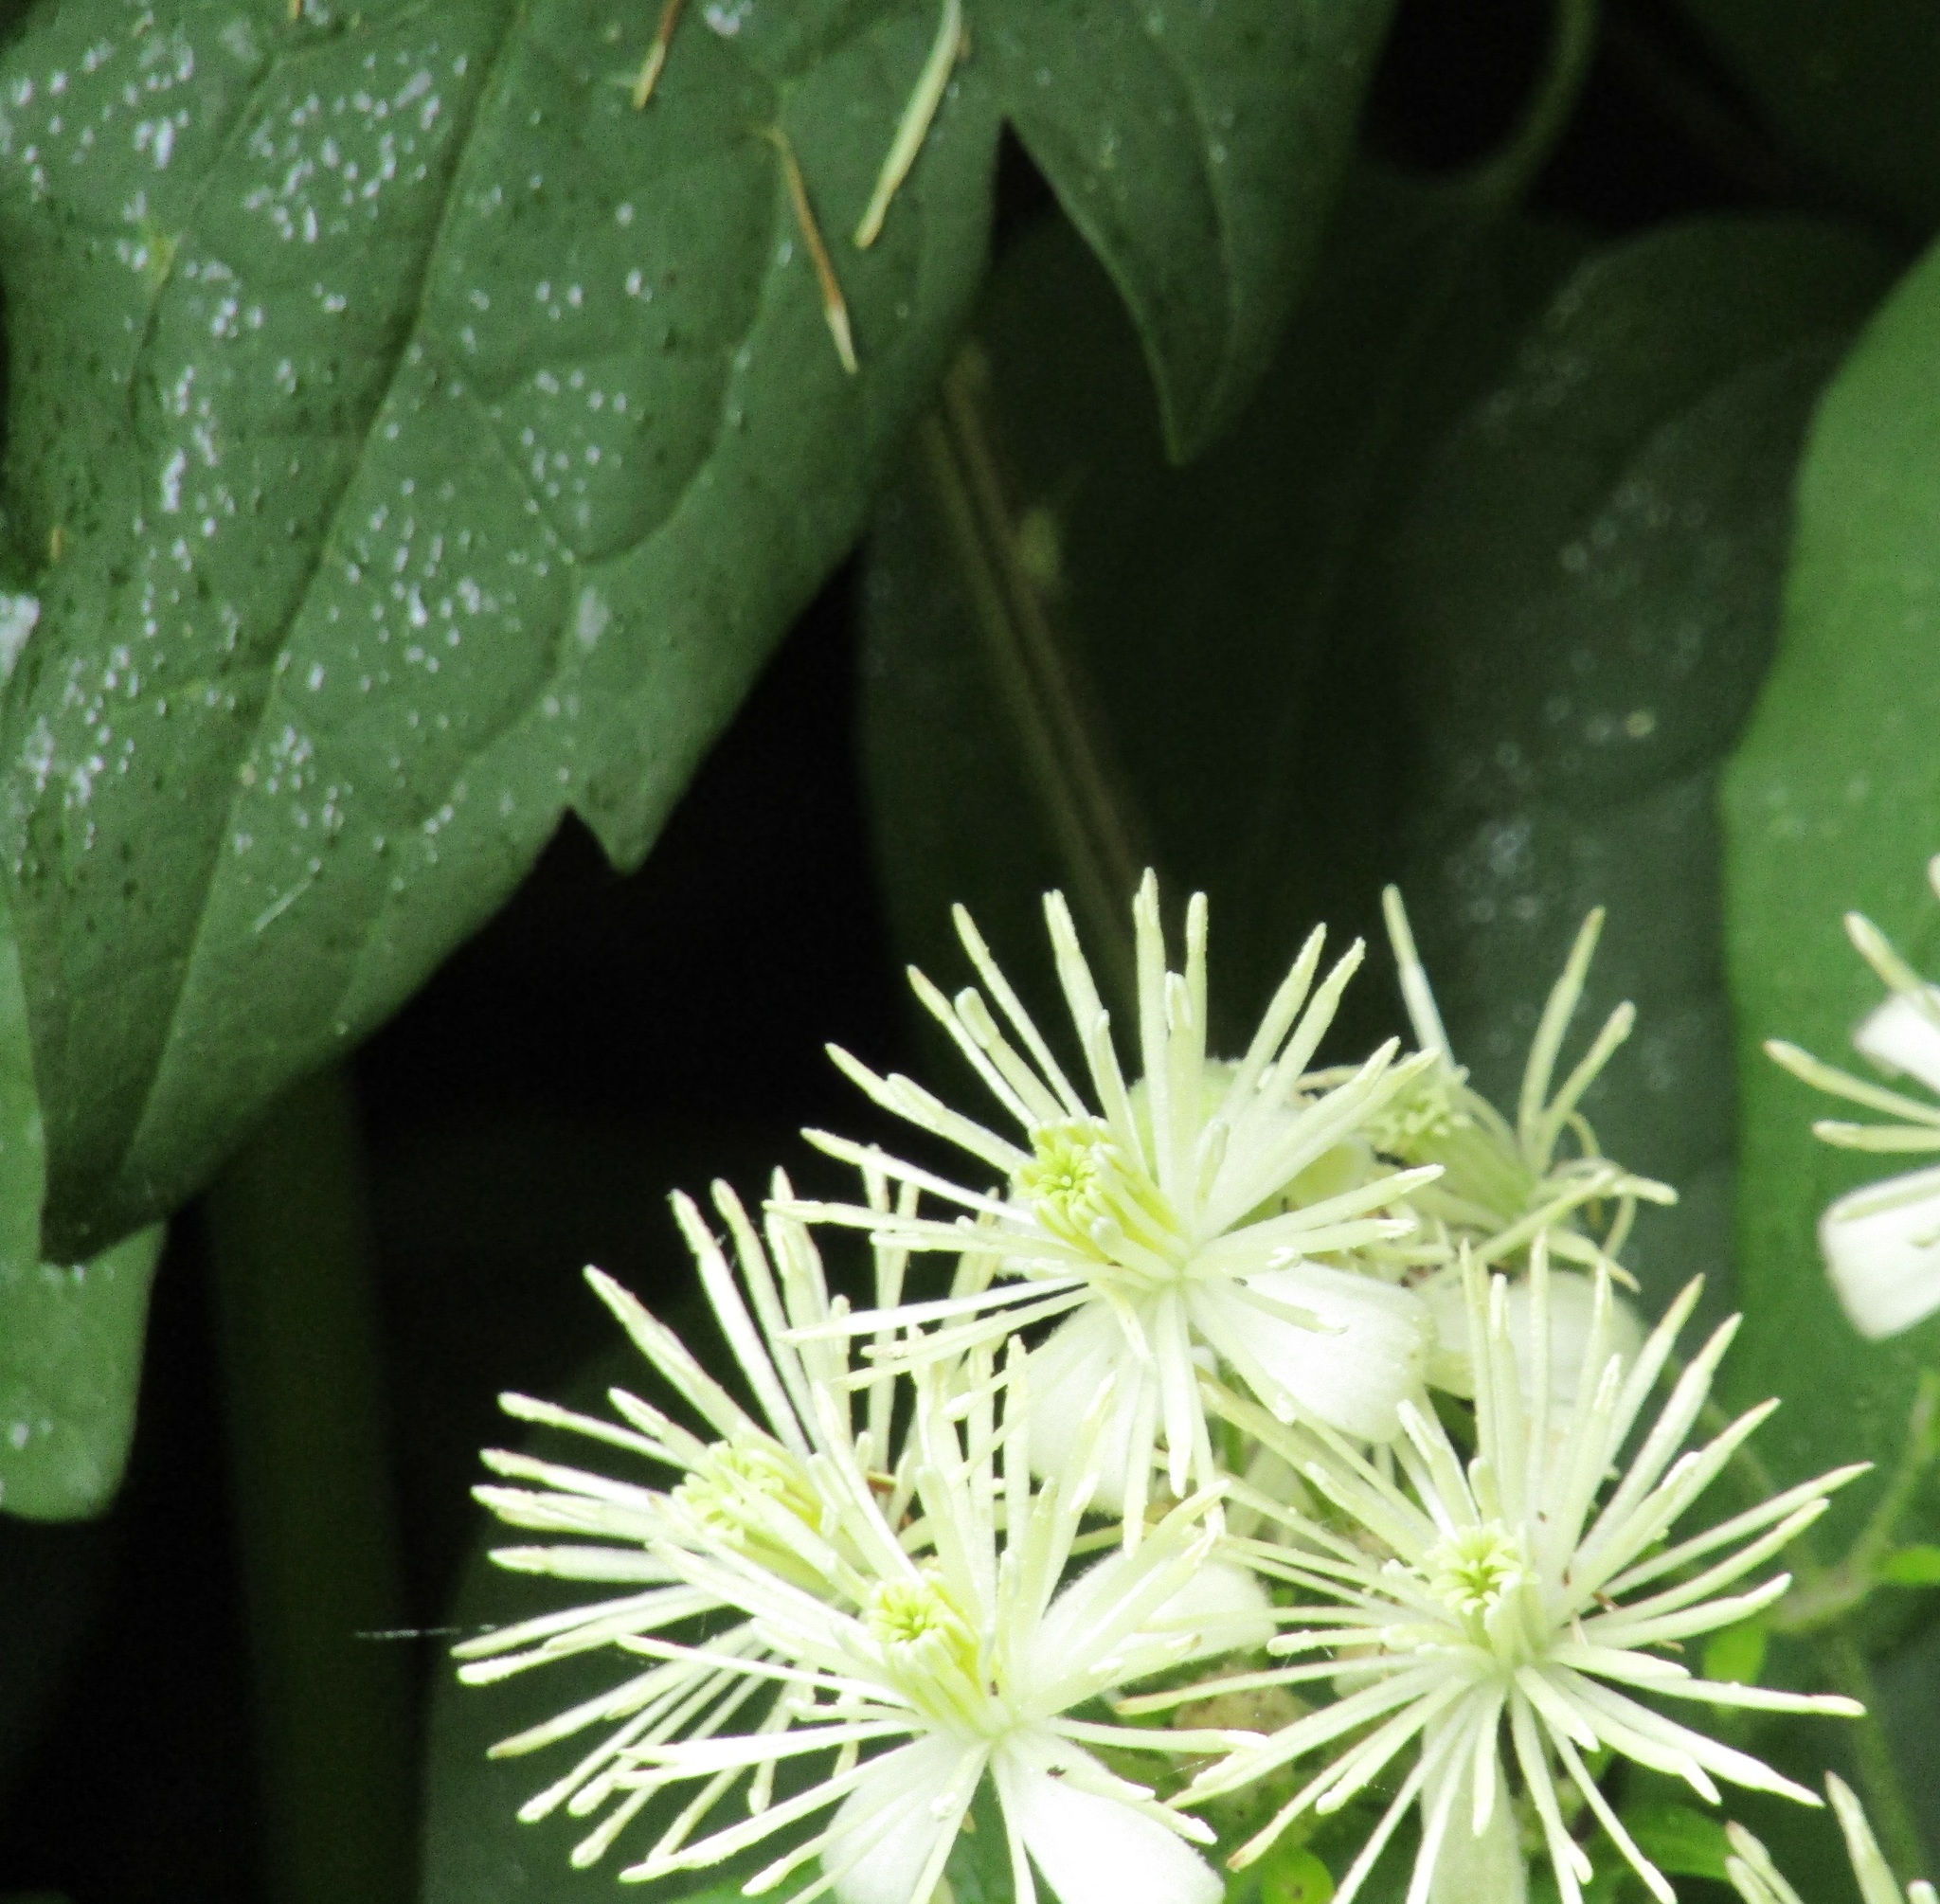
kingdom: Plantae
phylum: Tracheophyta
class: Magnoliopsida
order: Ranunculales
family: Ranunculaceae
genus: Clematis
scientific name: Clematis vitalba
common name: Evergreen clematis
